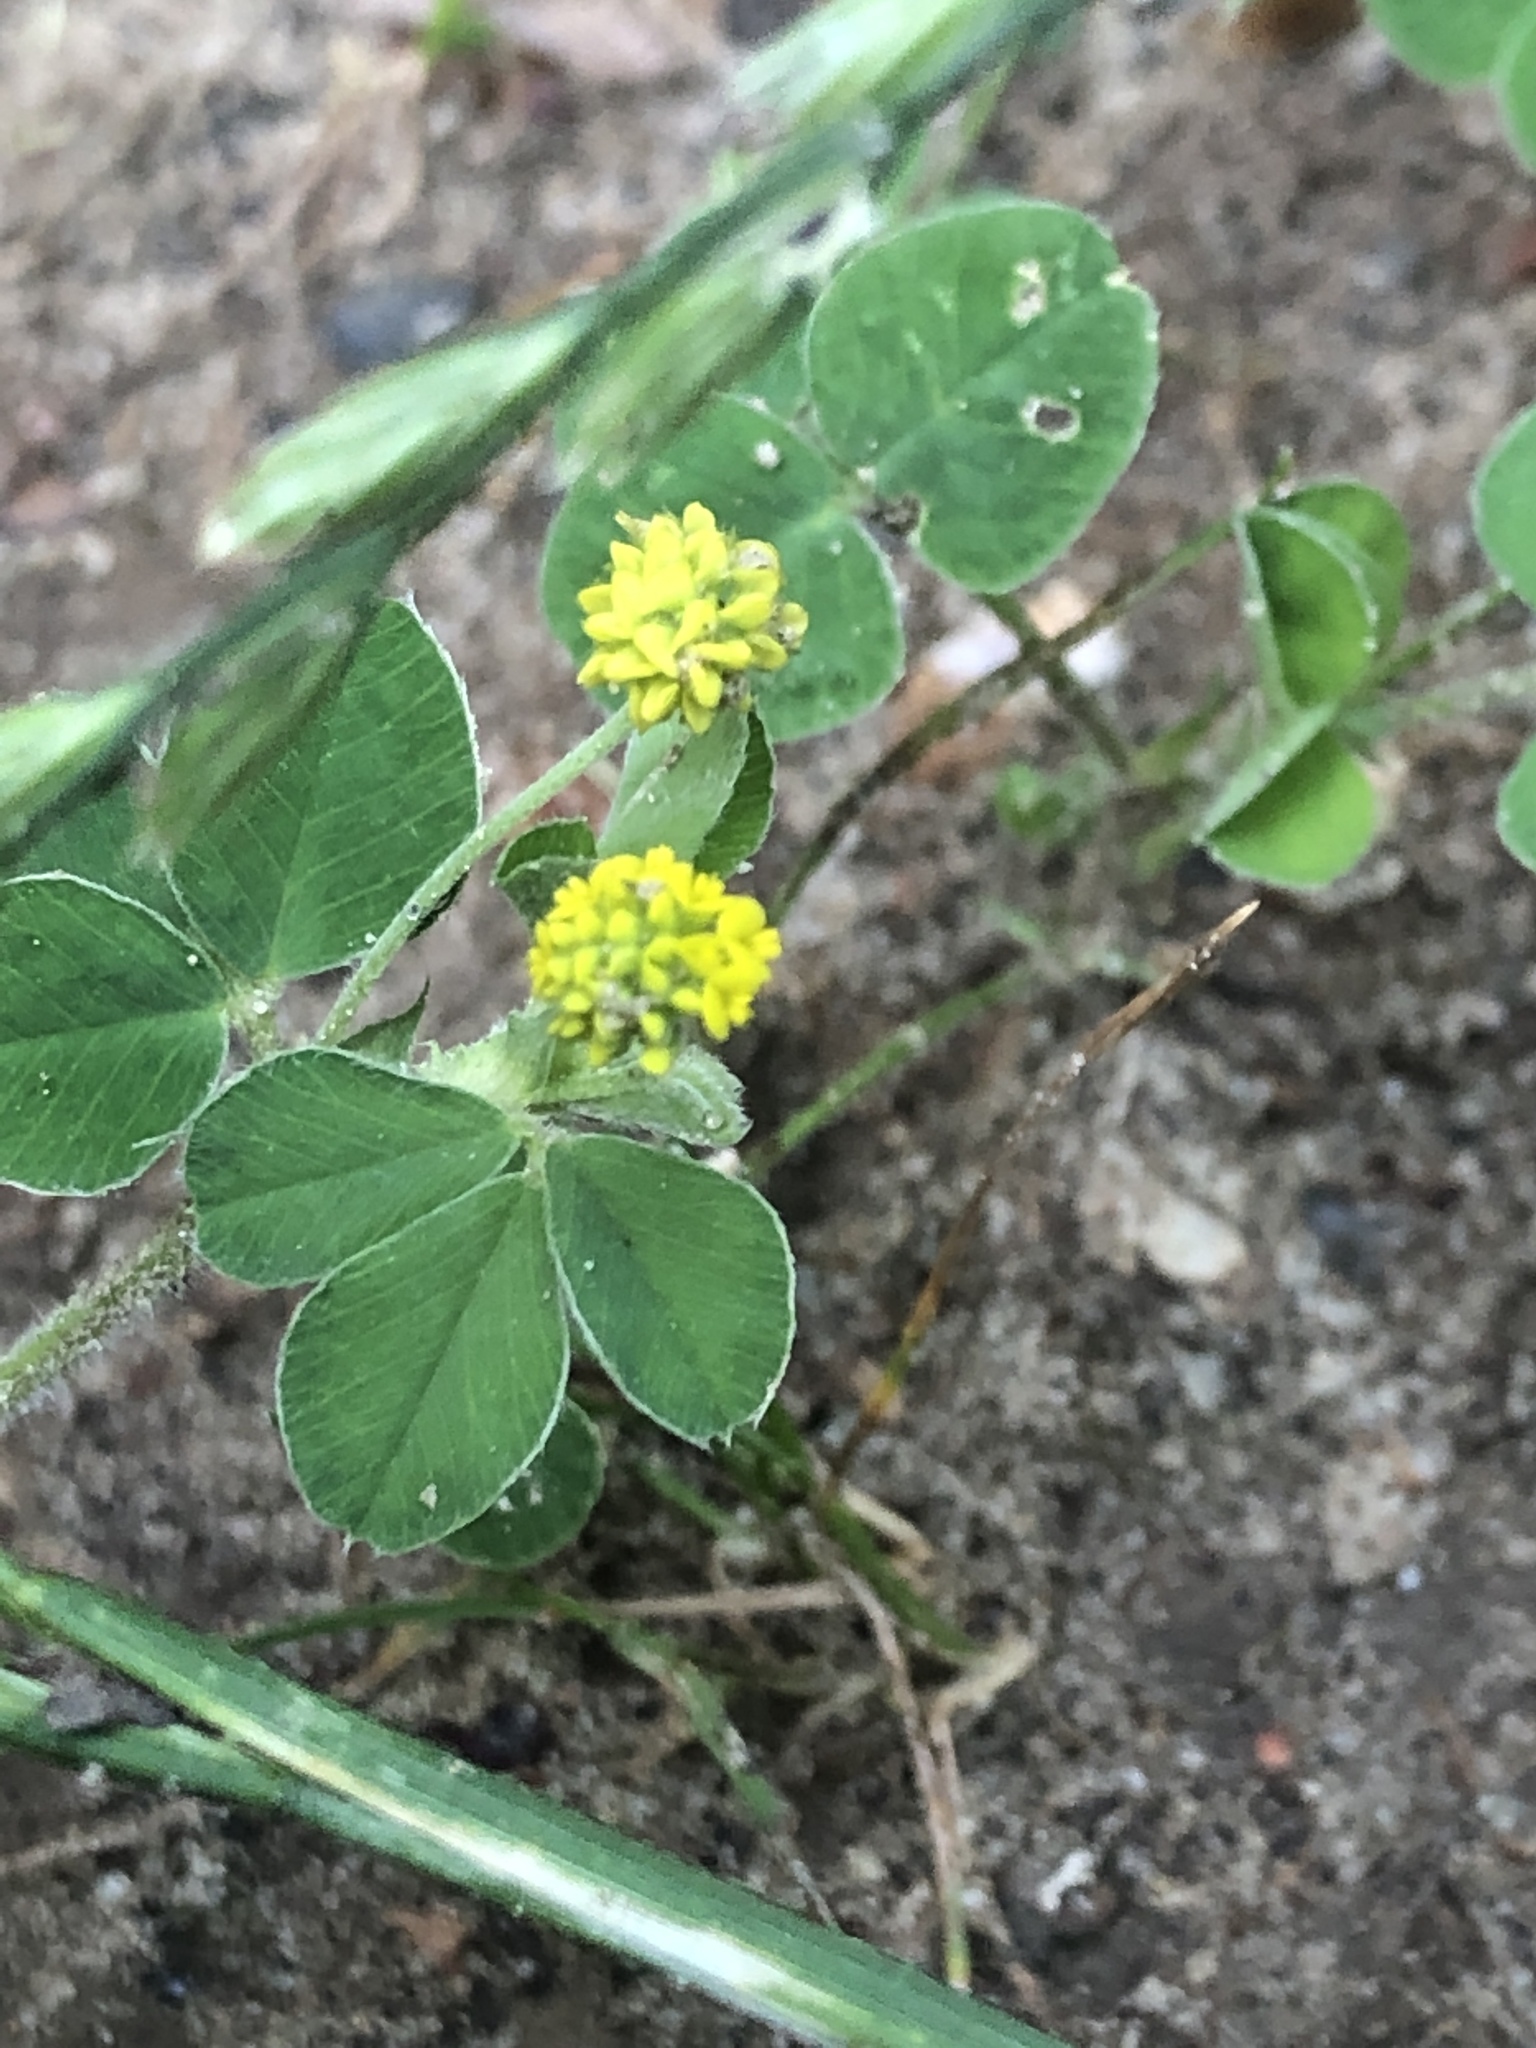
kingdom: Plantae
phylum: Tracheophyta
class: Magnoliopsida
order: Fabales
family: Fabaceae
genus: Medicago
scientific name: Medicago lupulina
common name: Black medick
